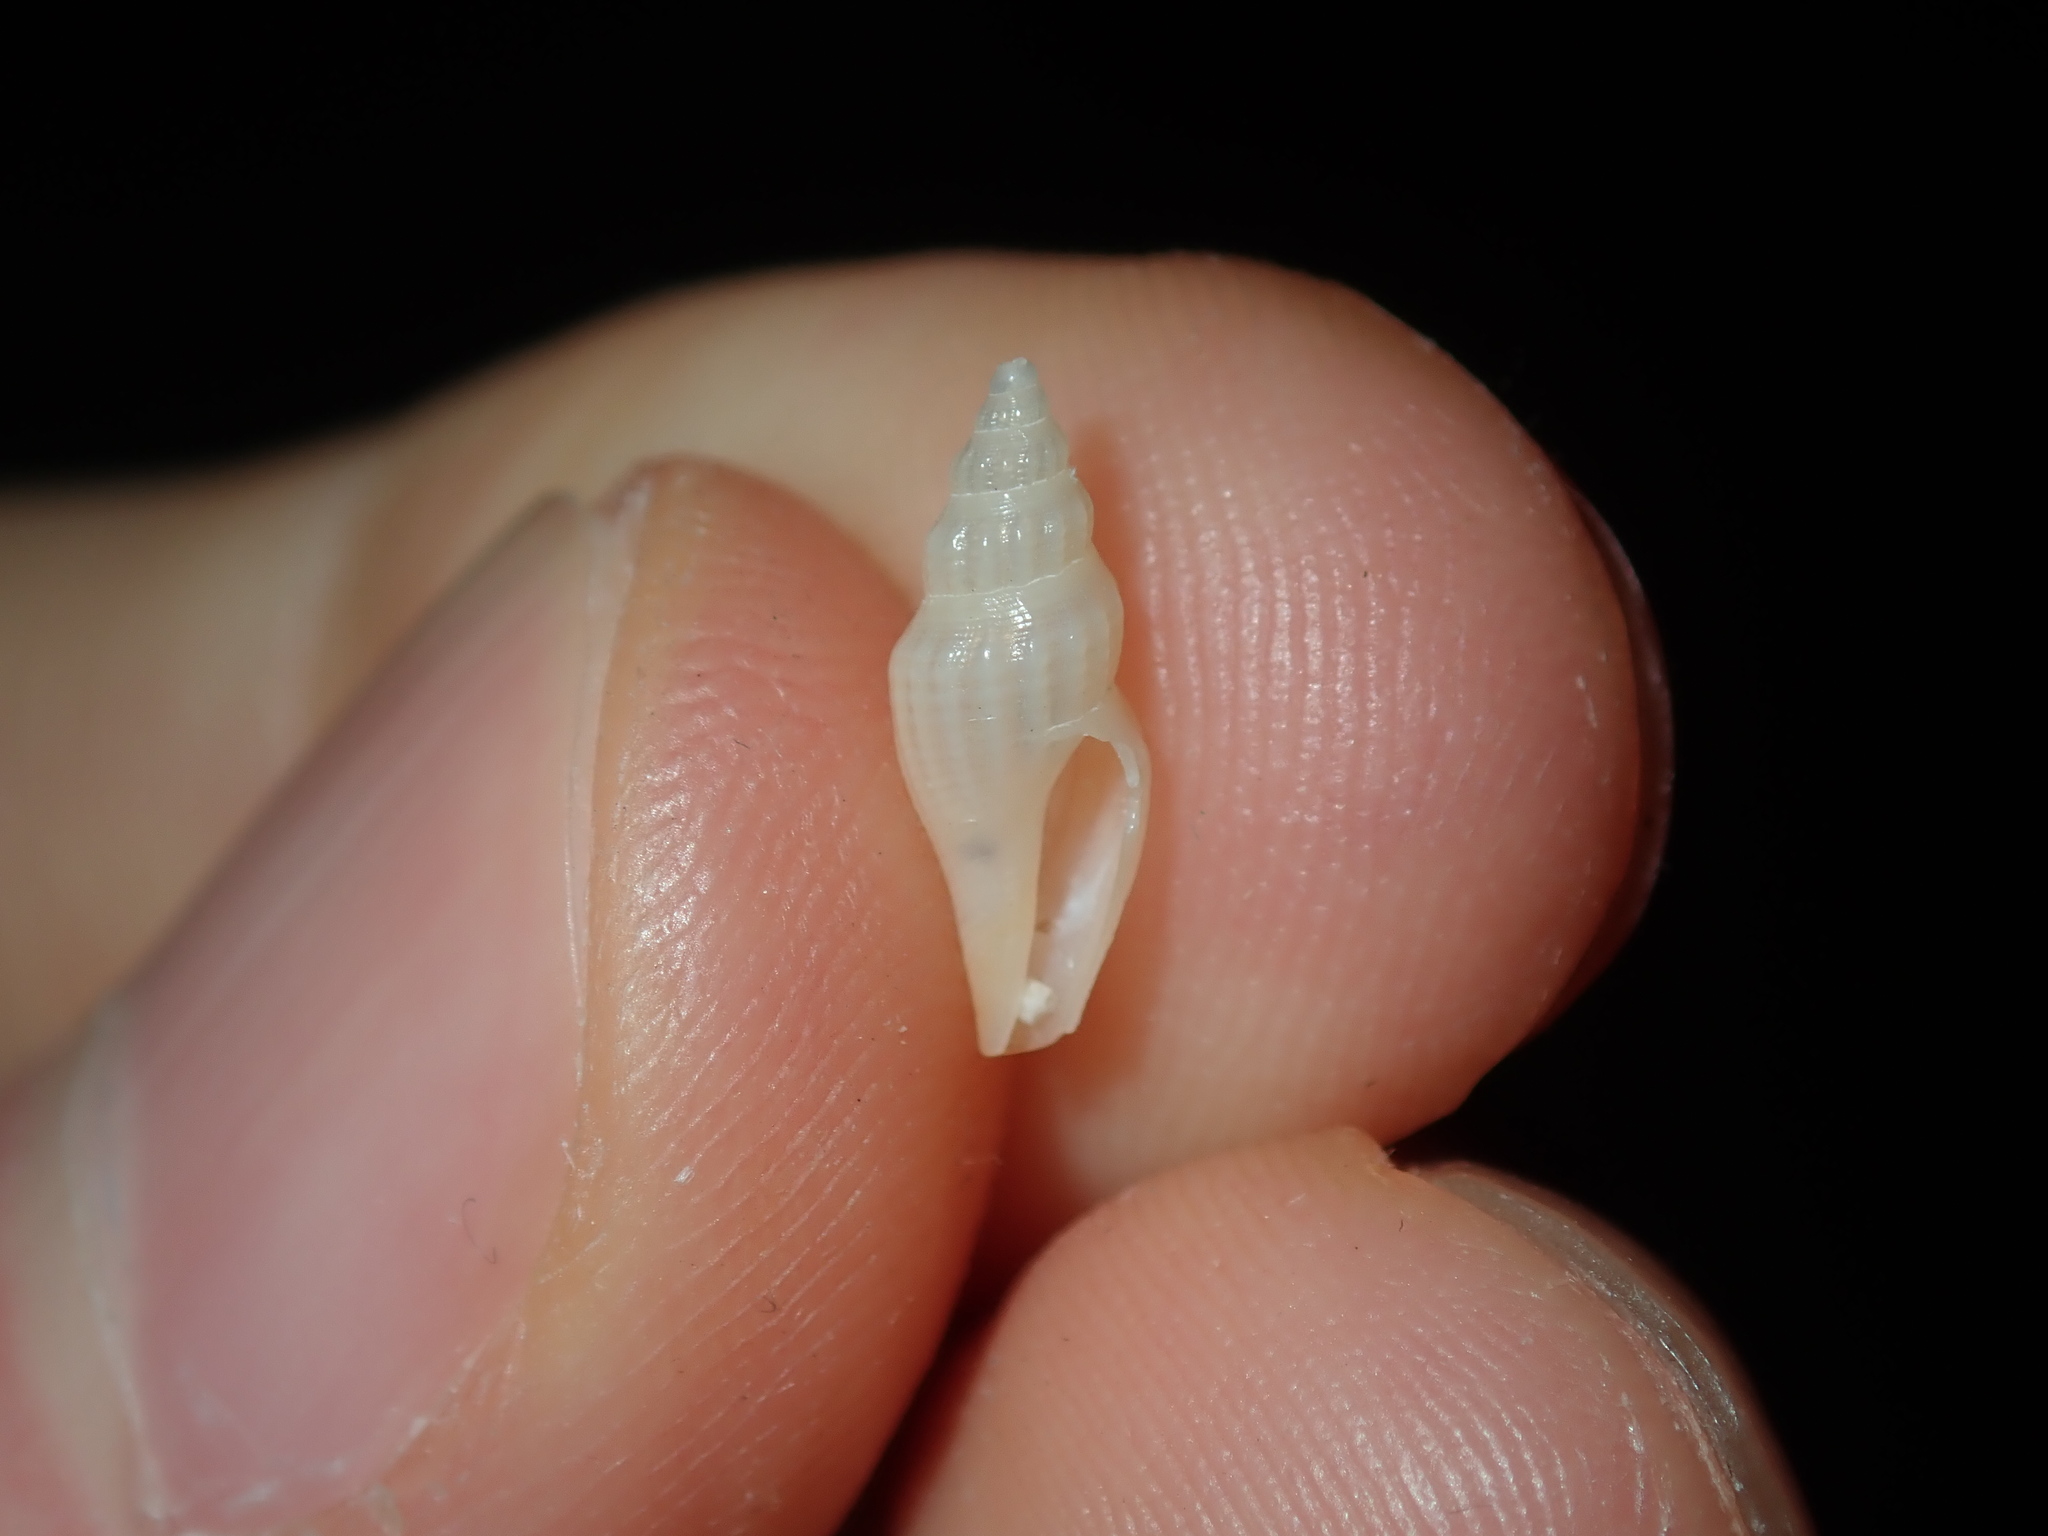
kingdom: Animalia
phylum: Mollusca
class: Gastropoda
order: Neogastropoda
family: Mangeliidae
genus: Guraleus
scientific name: Guraleus tasmanicus
